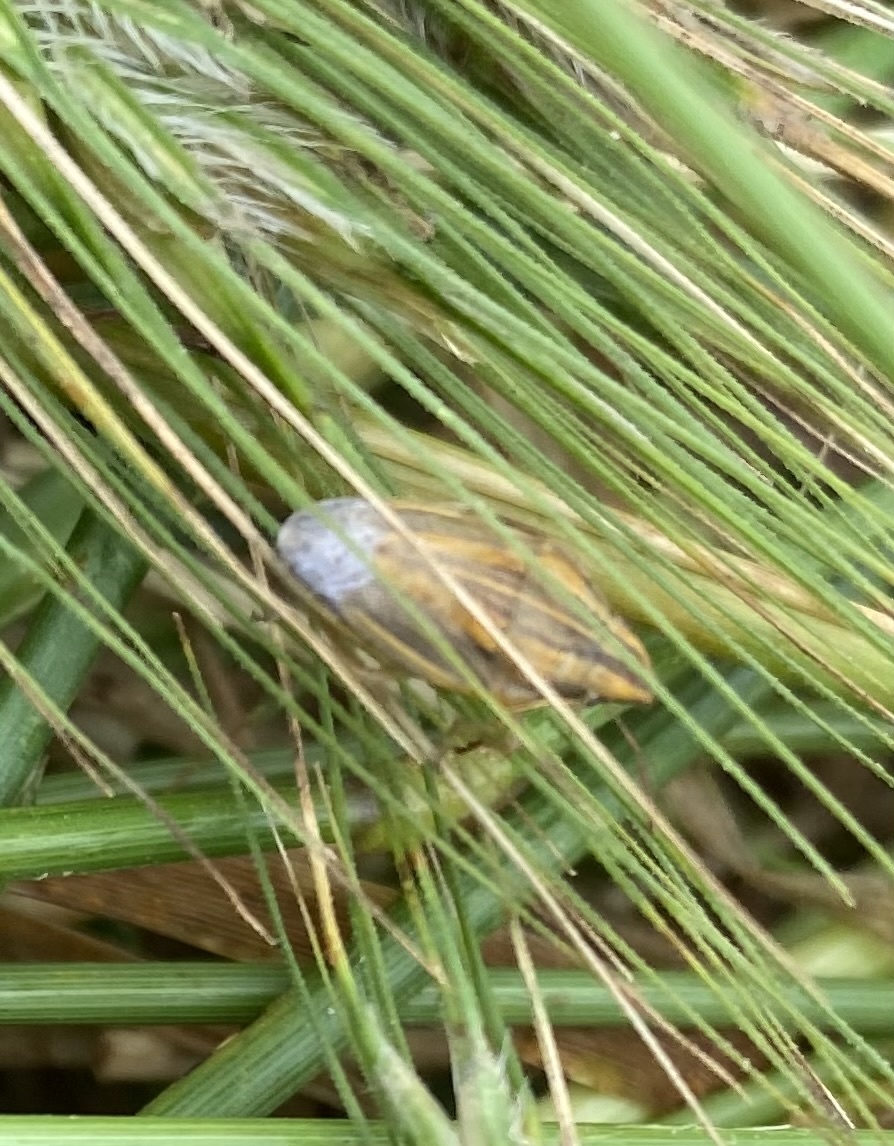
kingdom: Animalia
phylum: Arthropoda
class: Insecta
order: Hemiptera
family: Pentatomidae
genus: Aelia
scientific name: Aelia acuminata
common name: Bishop's mitre
